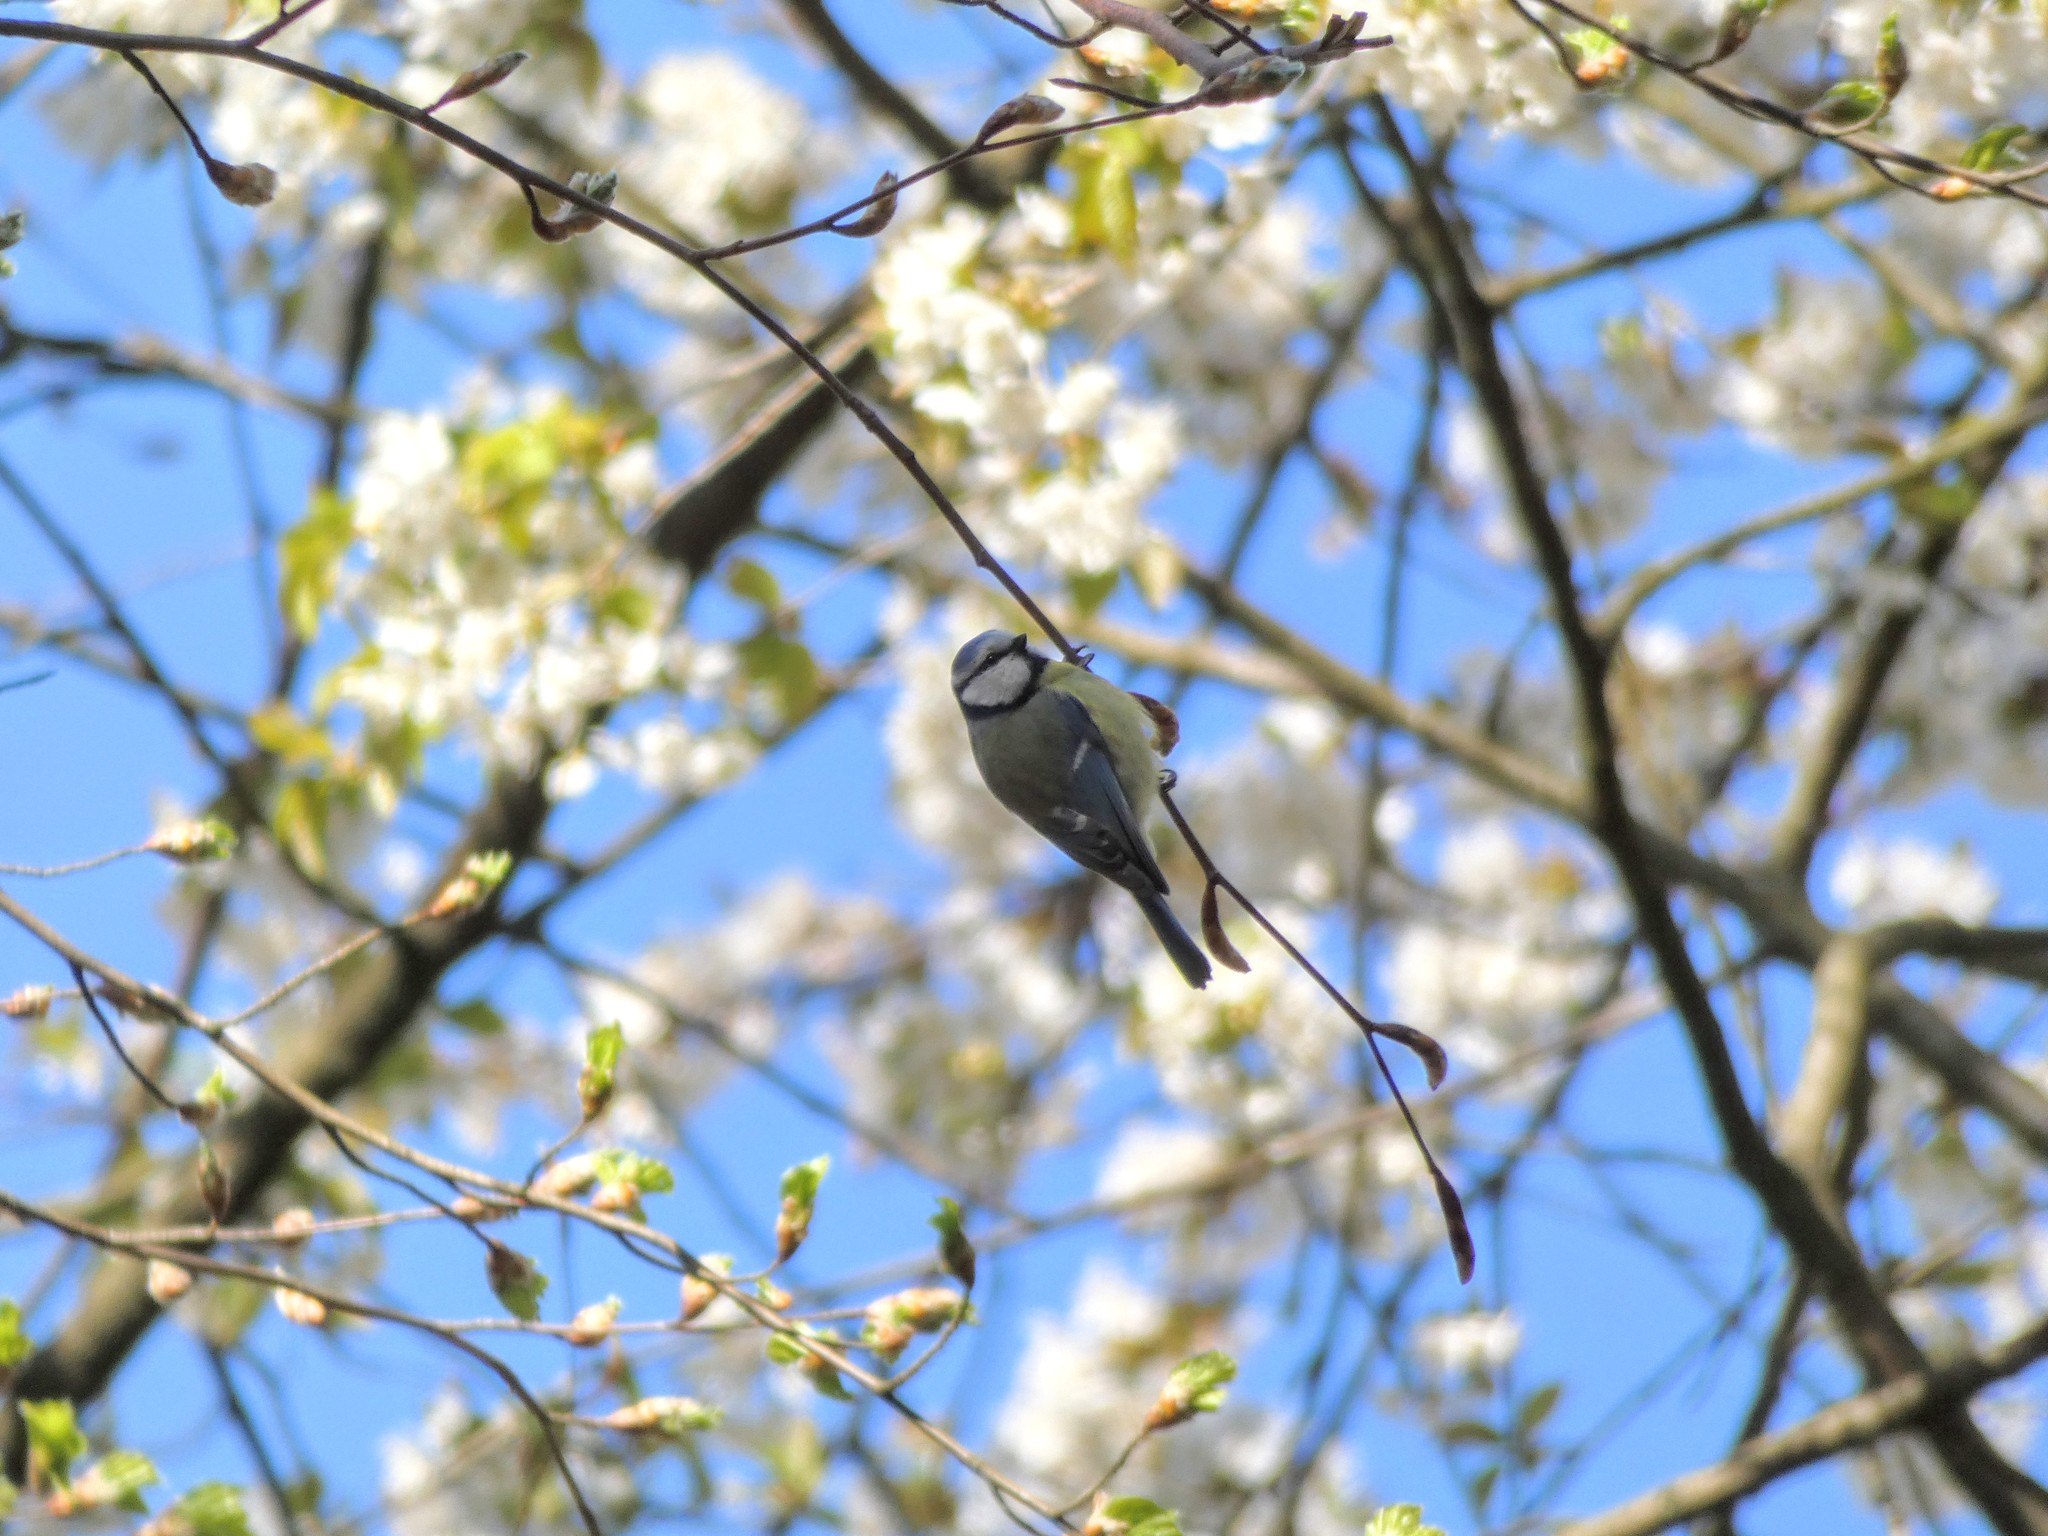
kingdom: Animalia
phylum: Chordata
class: Aves
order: Passeriformes
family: Paridae
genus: Cyanistes
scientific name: Cyanistes caeruleus
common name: Eurasian blue tit
